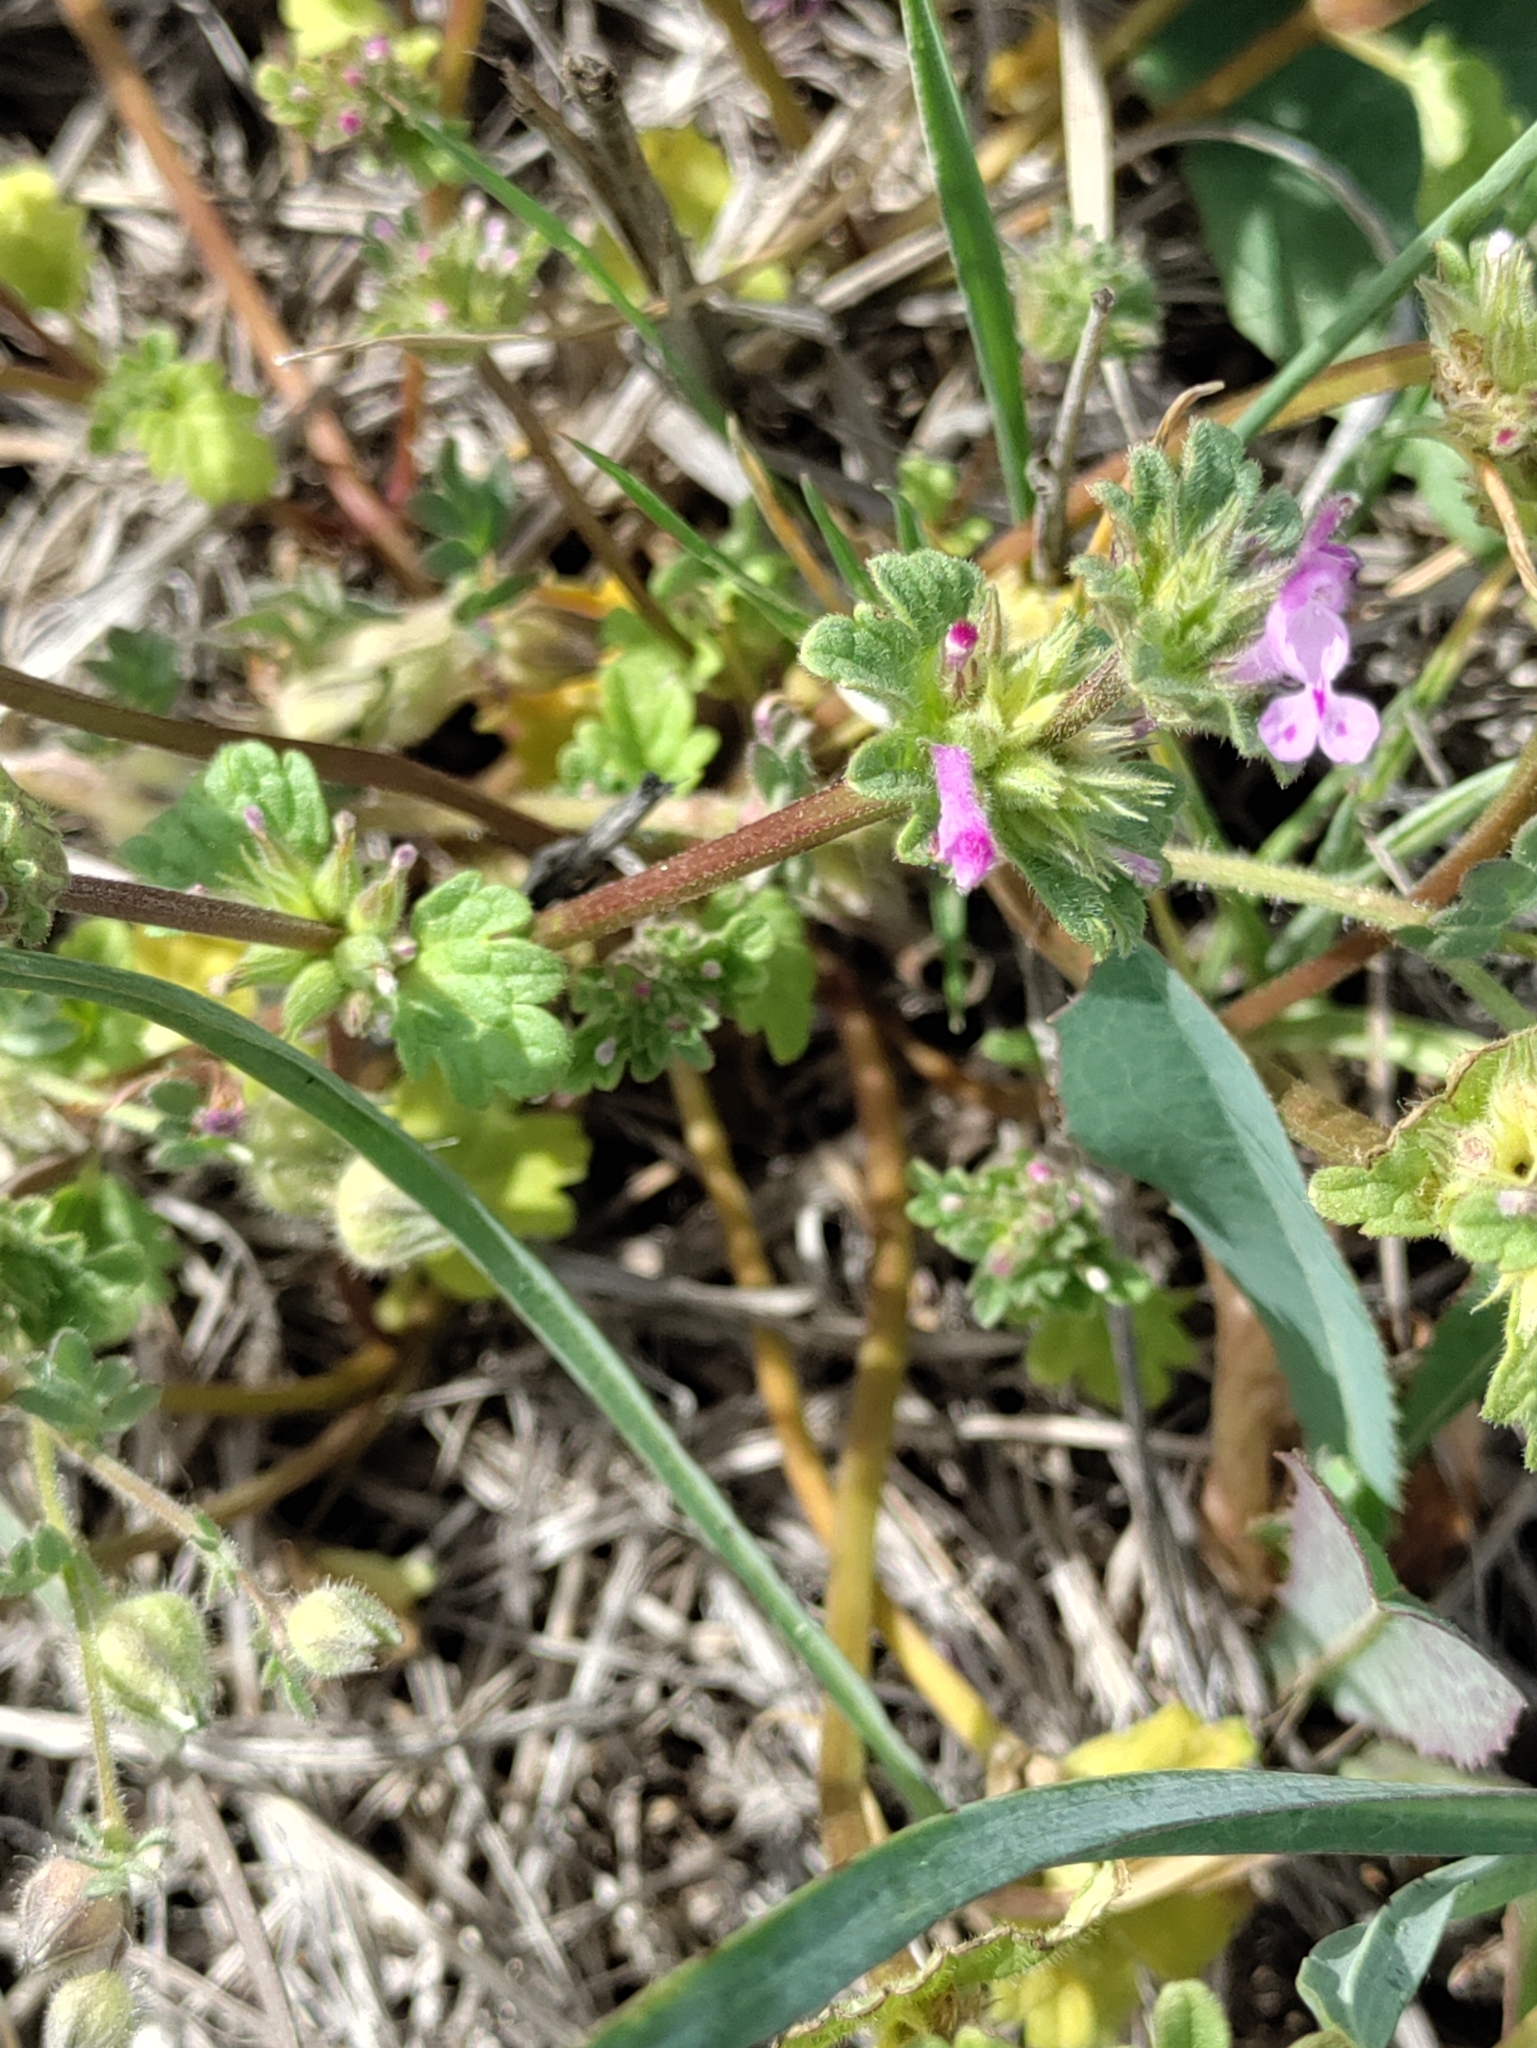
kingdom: Plantae
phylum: Tracheophyta
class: Magnoliopsida
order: Lamiales
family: Lamiaceae
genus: Lamium
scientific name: Lamium amplexicaule
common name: Henbit dead-nettle
